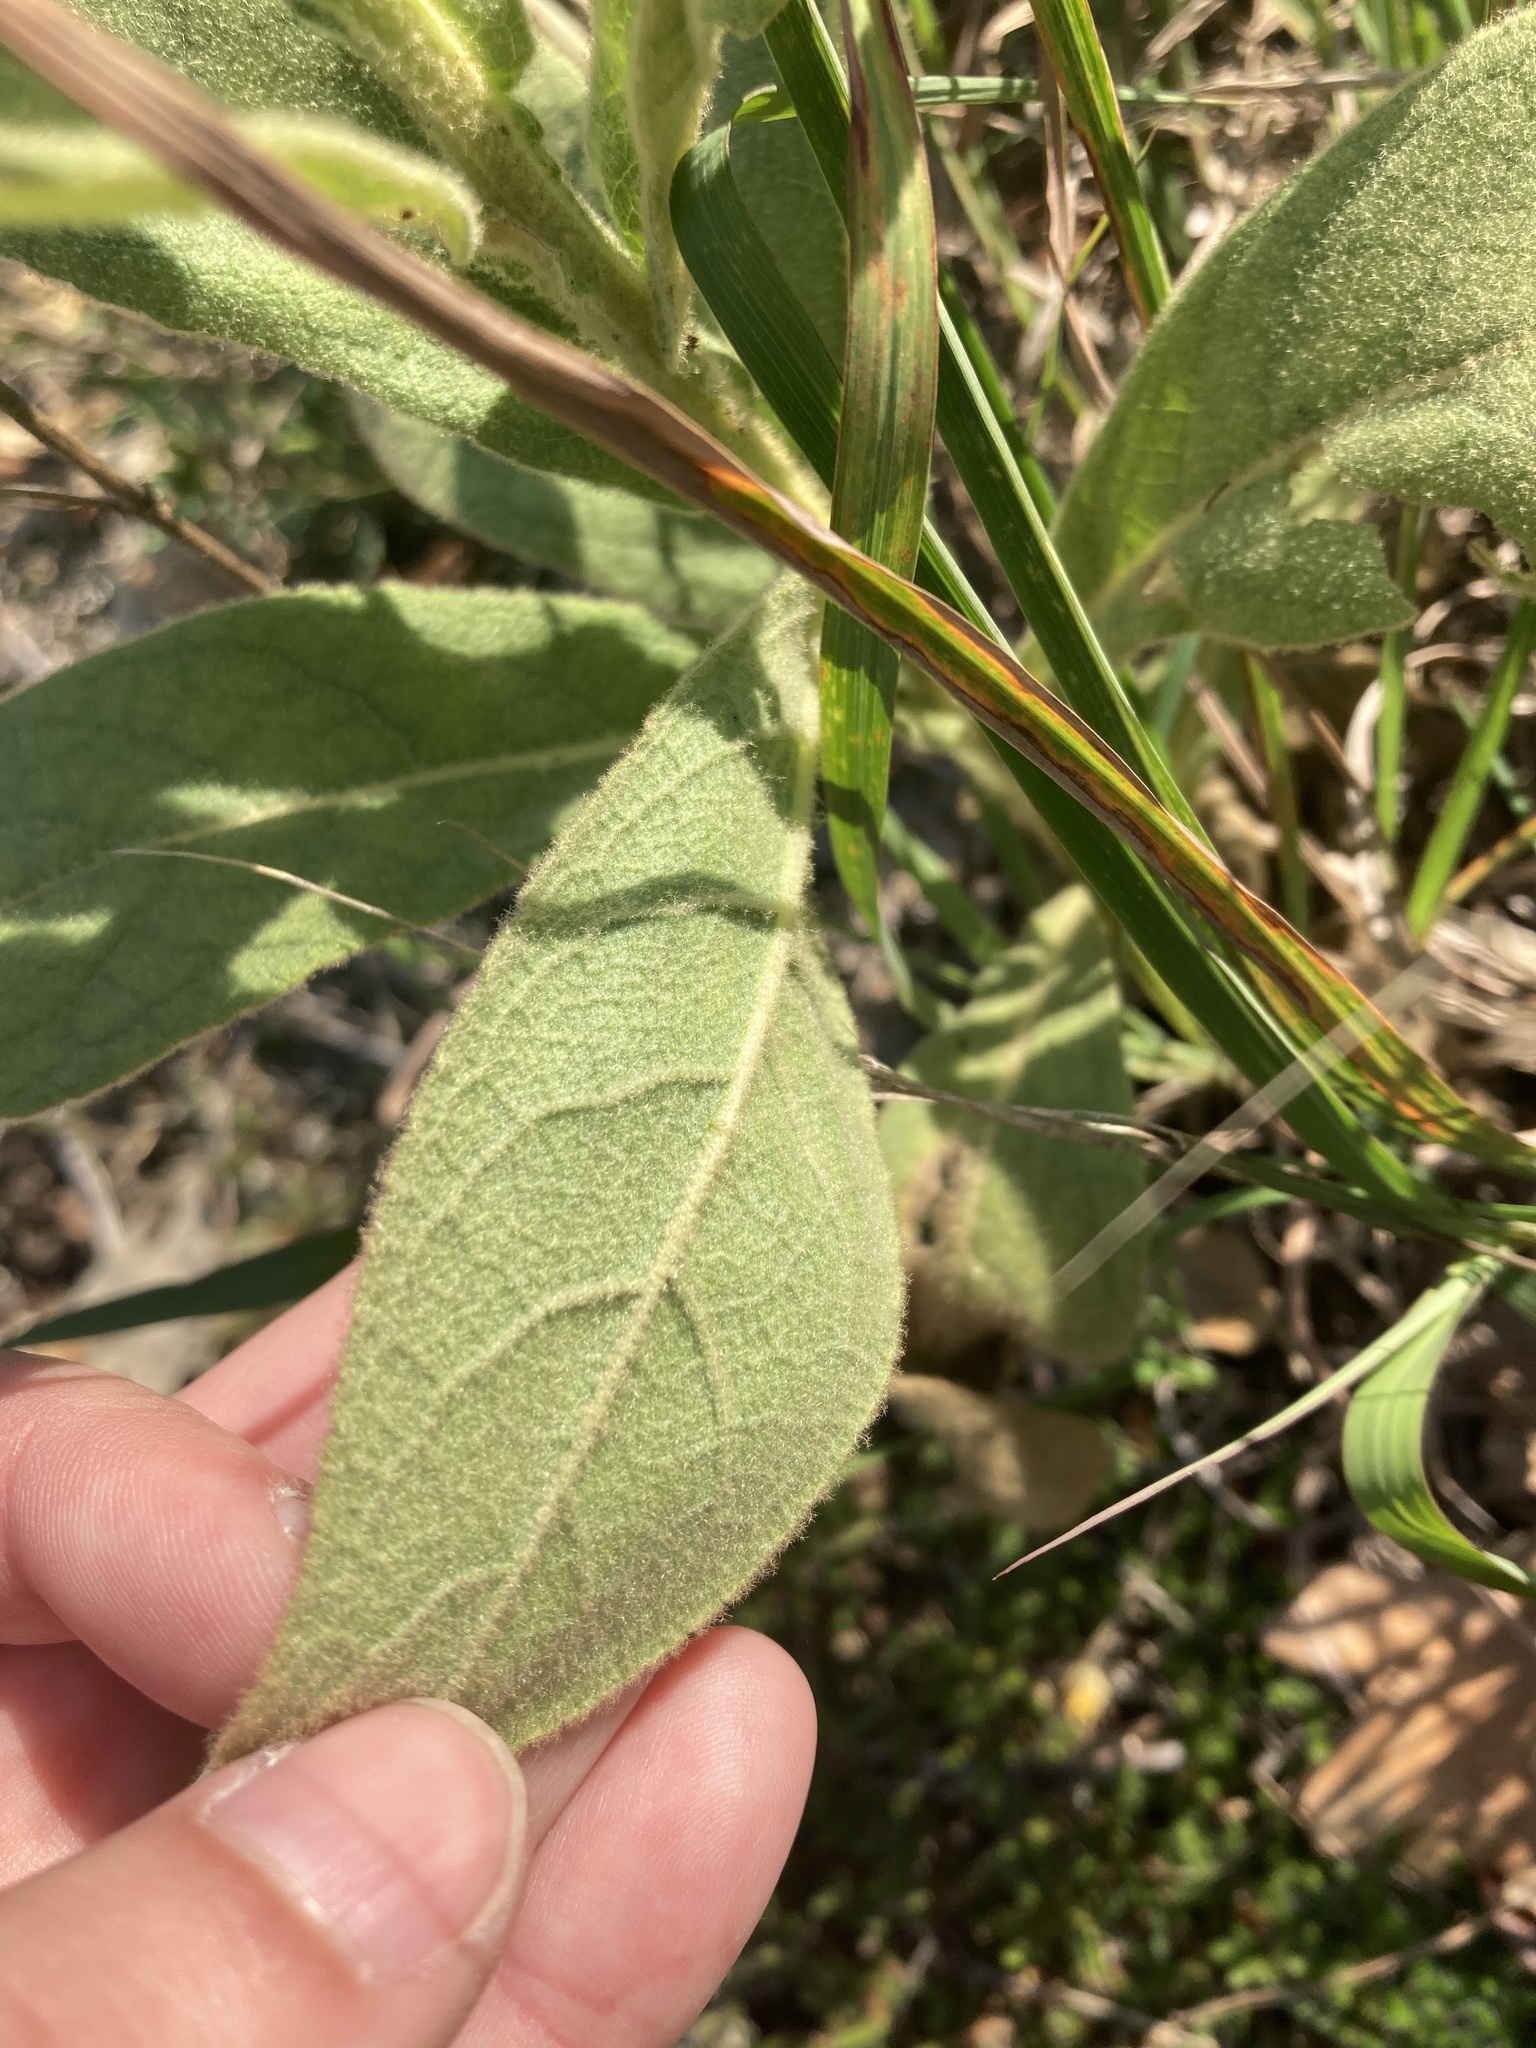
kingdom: Plantae
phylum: Tracheophyta
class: Magnoliopsida
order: Lamiales
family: Scrophulariaceae
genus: Verbascum
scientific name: Verbascum thapsus
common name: Common mullein
